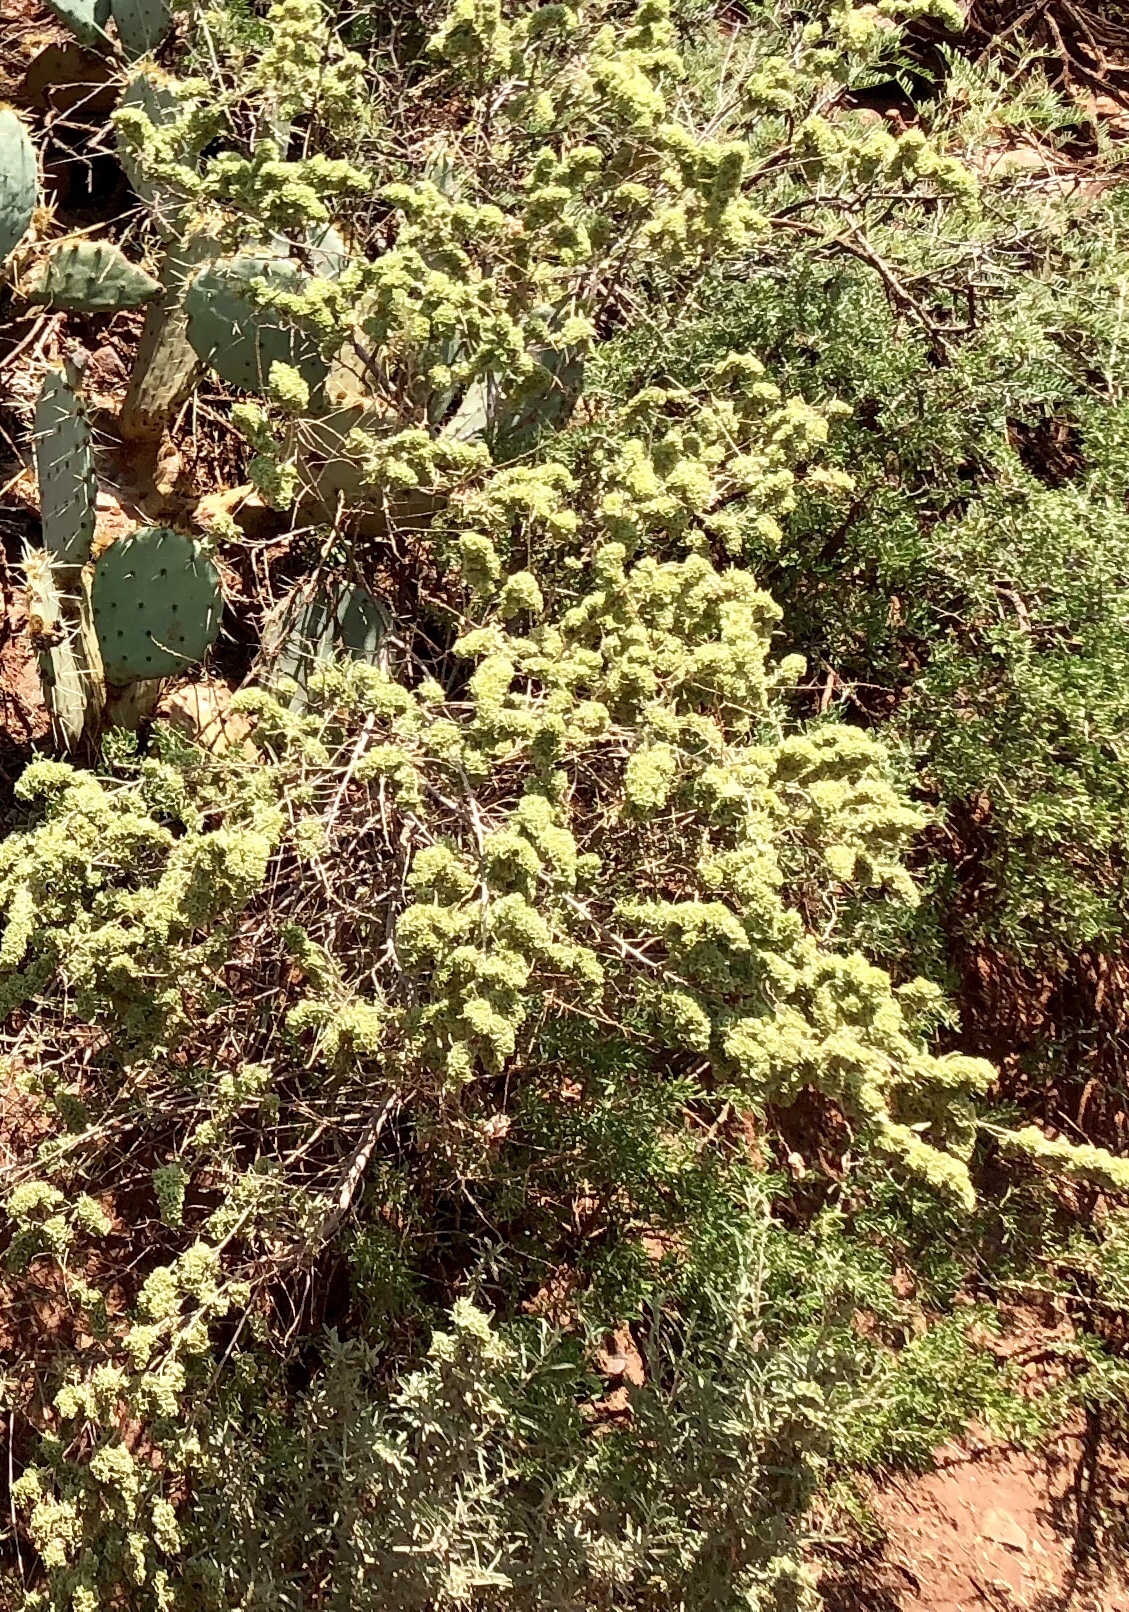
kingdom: Plantae
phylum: Tracheophyta
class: Magnoliopsida
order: Caryophyllales
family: Amaranthaceae
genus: Atriplex
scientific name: Atriplex canescens
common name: Four-wing saltbush
